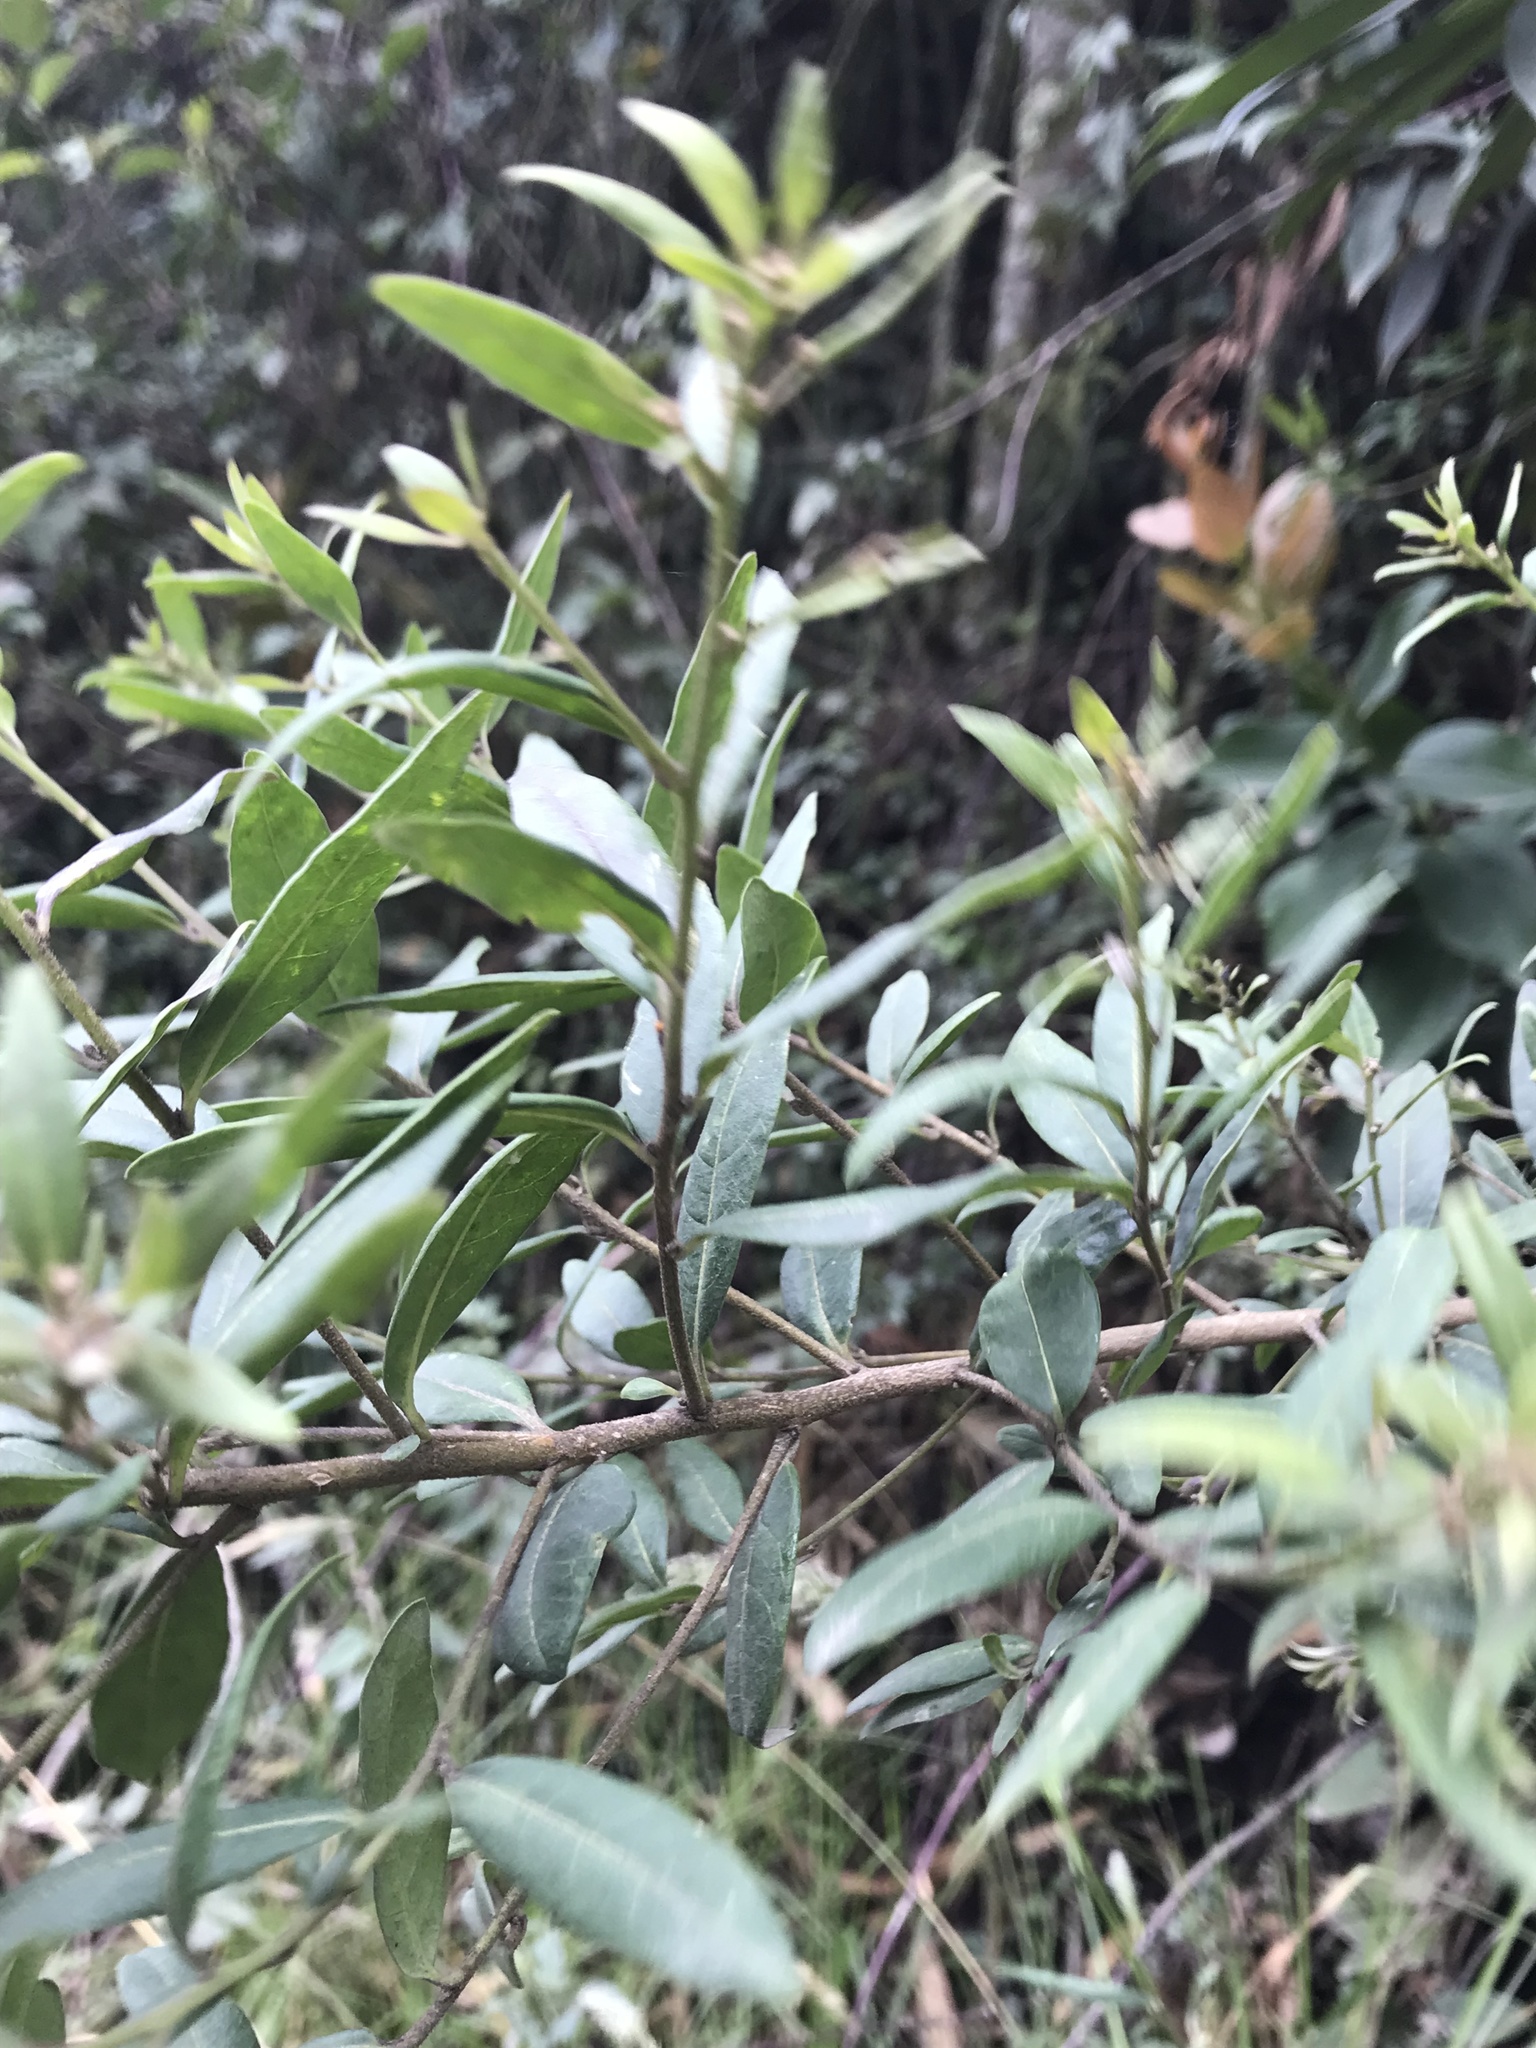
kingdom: Plantae
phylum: Tracheophyta
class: Magnoliopsida
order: Myrtales
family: Lythraceae
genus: Cuphea
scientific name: Cuphea dipetala
